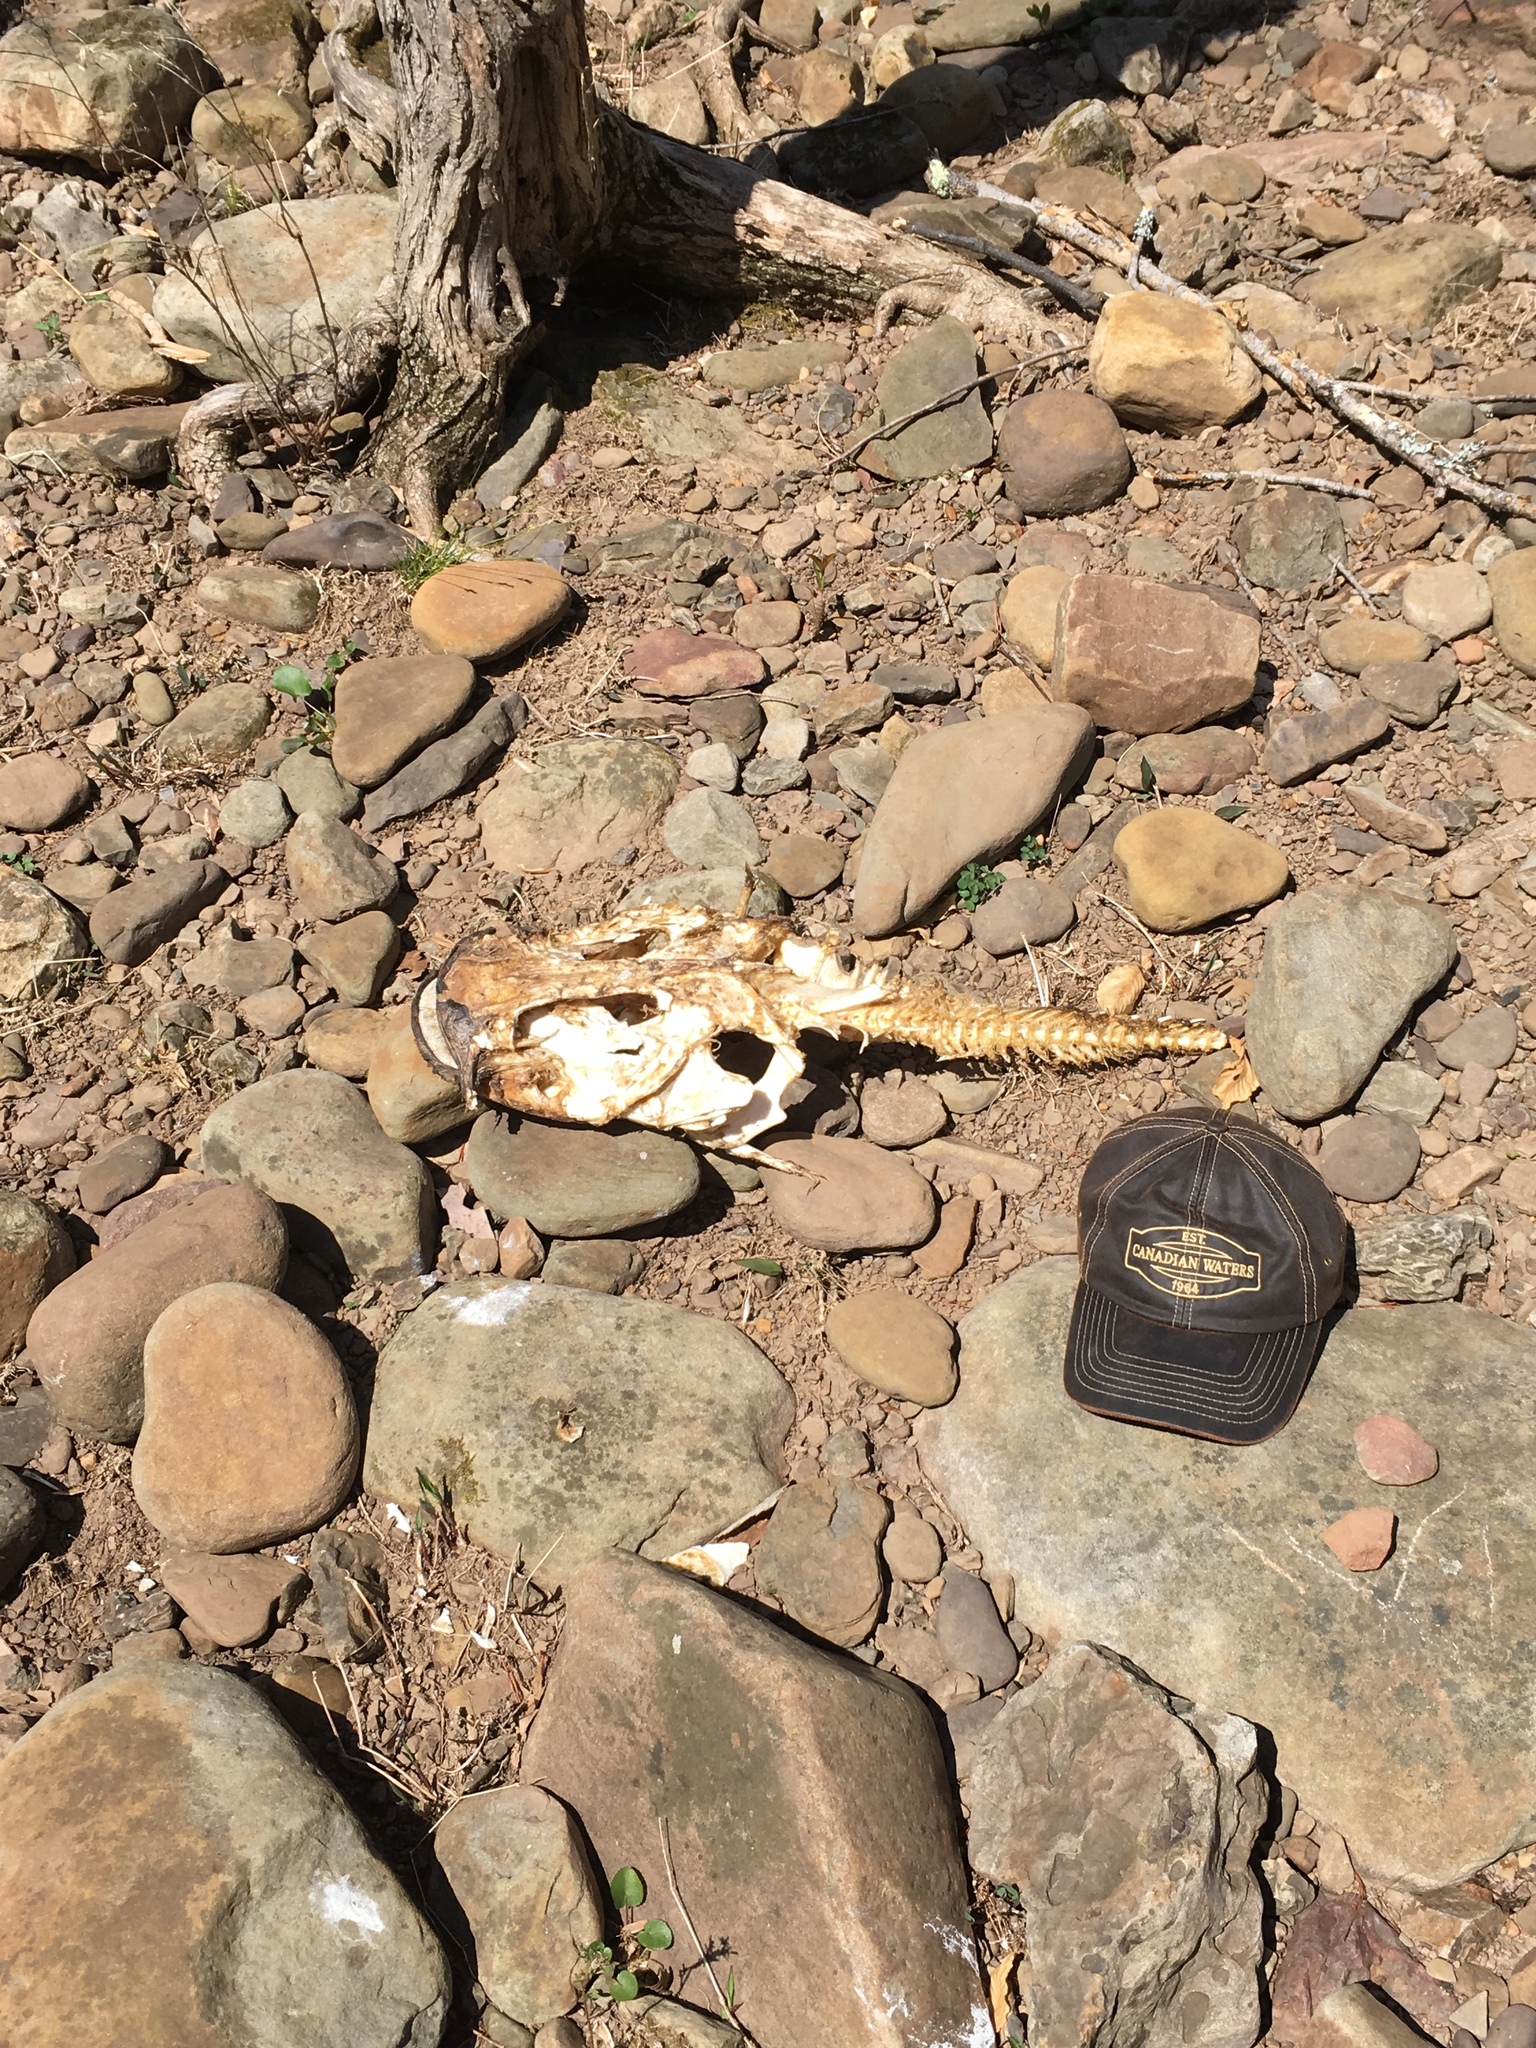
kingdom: Animalia
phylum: Chordata
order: Siluriformes
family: Ictaluridae
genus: Pylodictis
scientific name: Pylodictis olivaris
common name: Flathead catfish
